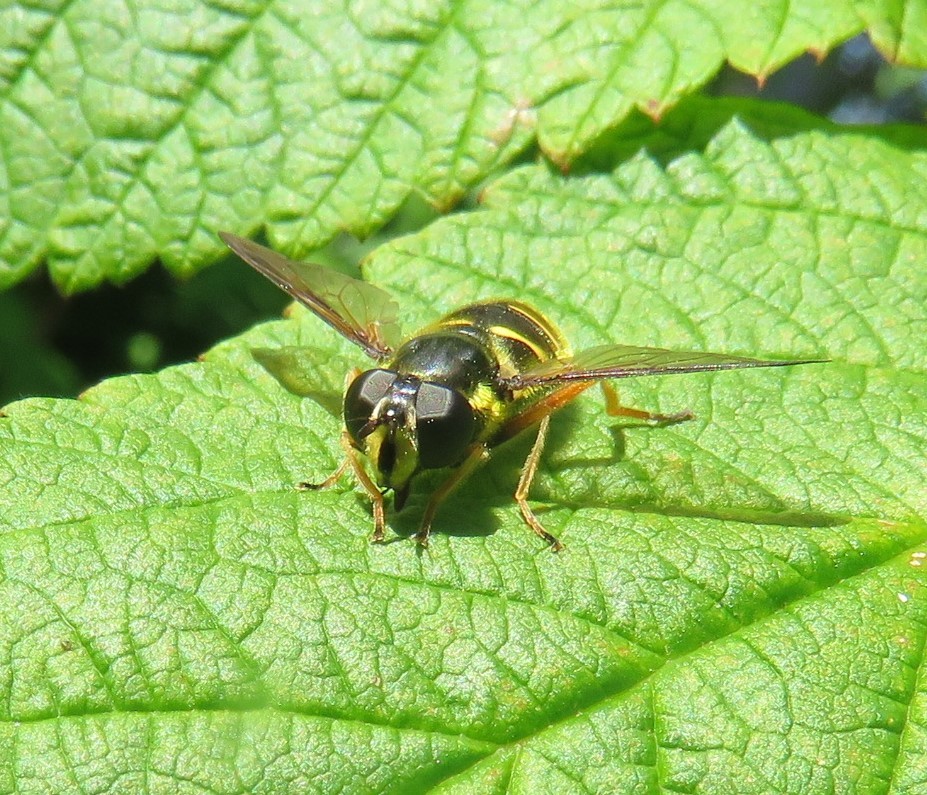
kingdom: Animalia
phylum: Arthropoda
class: Insecta
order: Diptera
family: Syrphidae
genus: Sericomyia
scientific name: Sericomyia chrysotoxoides
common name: Oblique-banded pond fly
